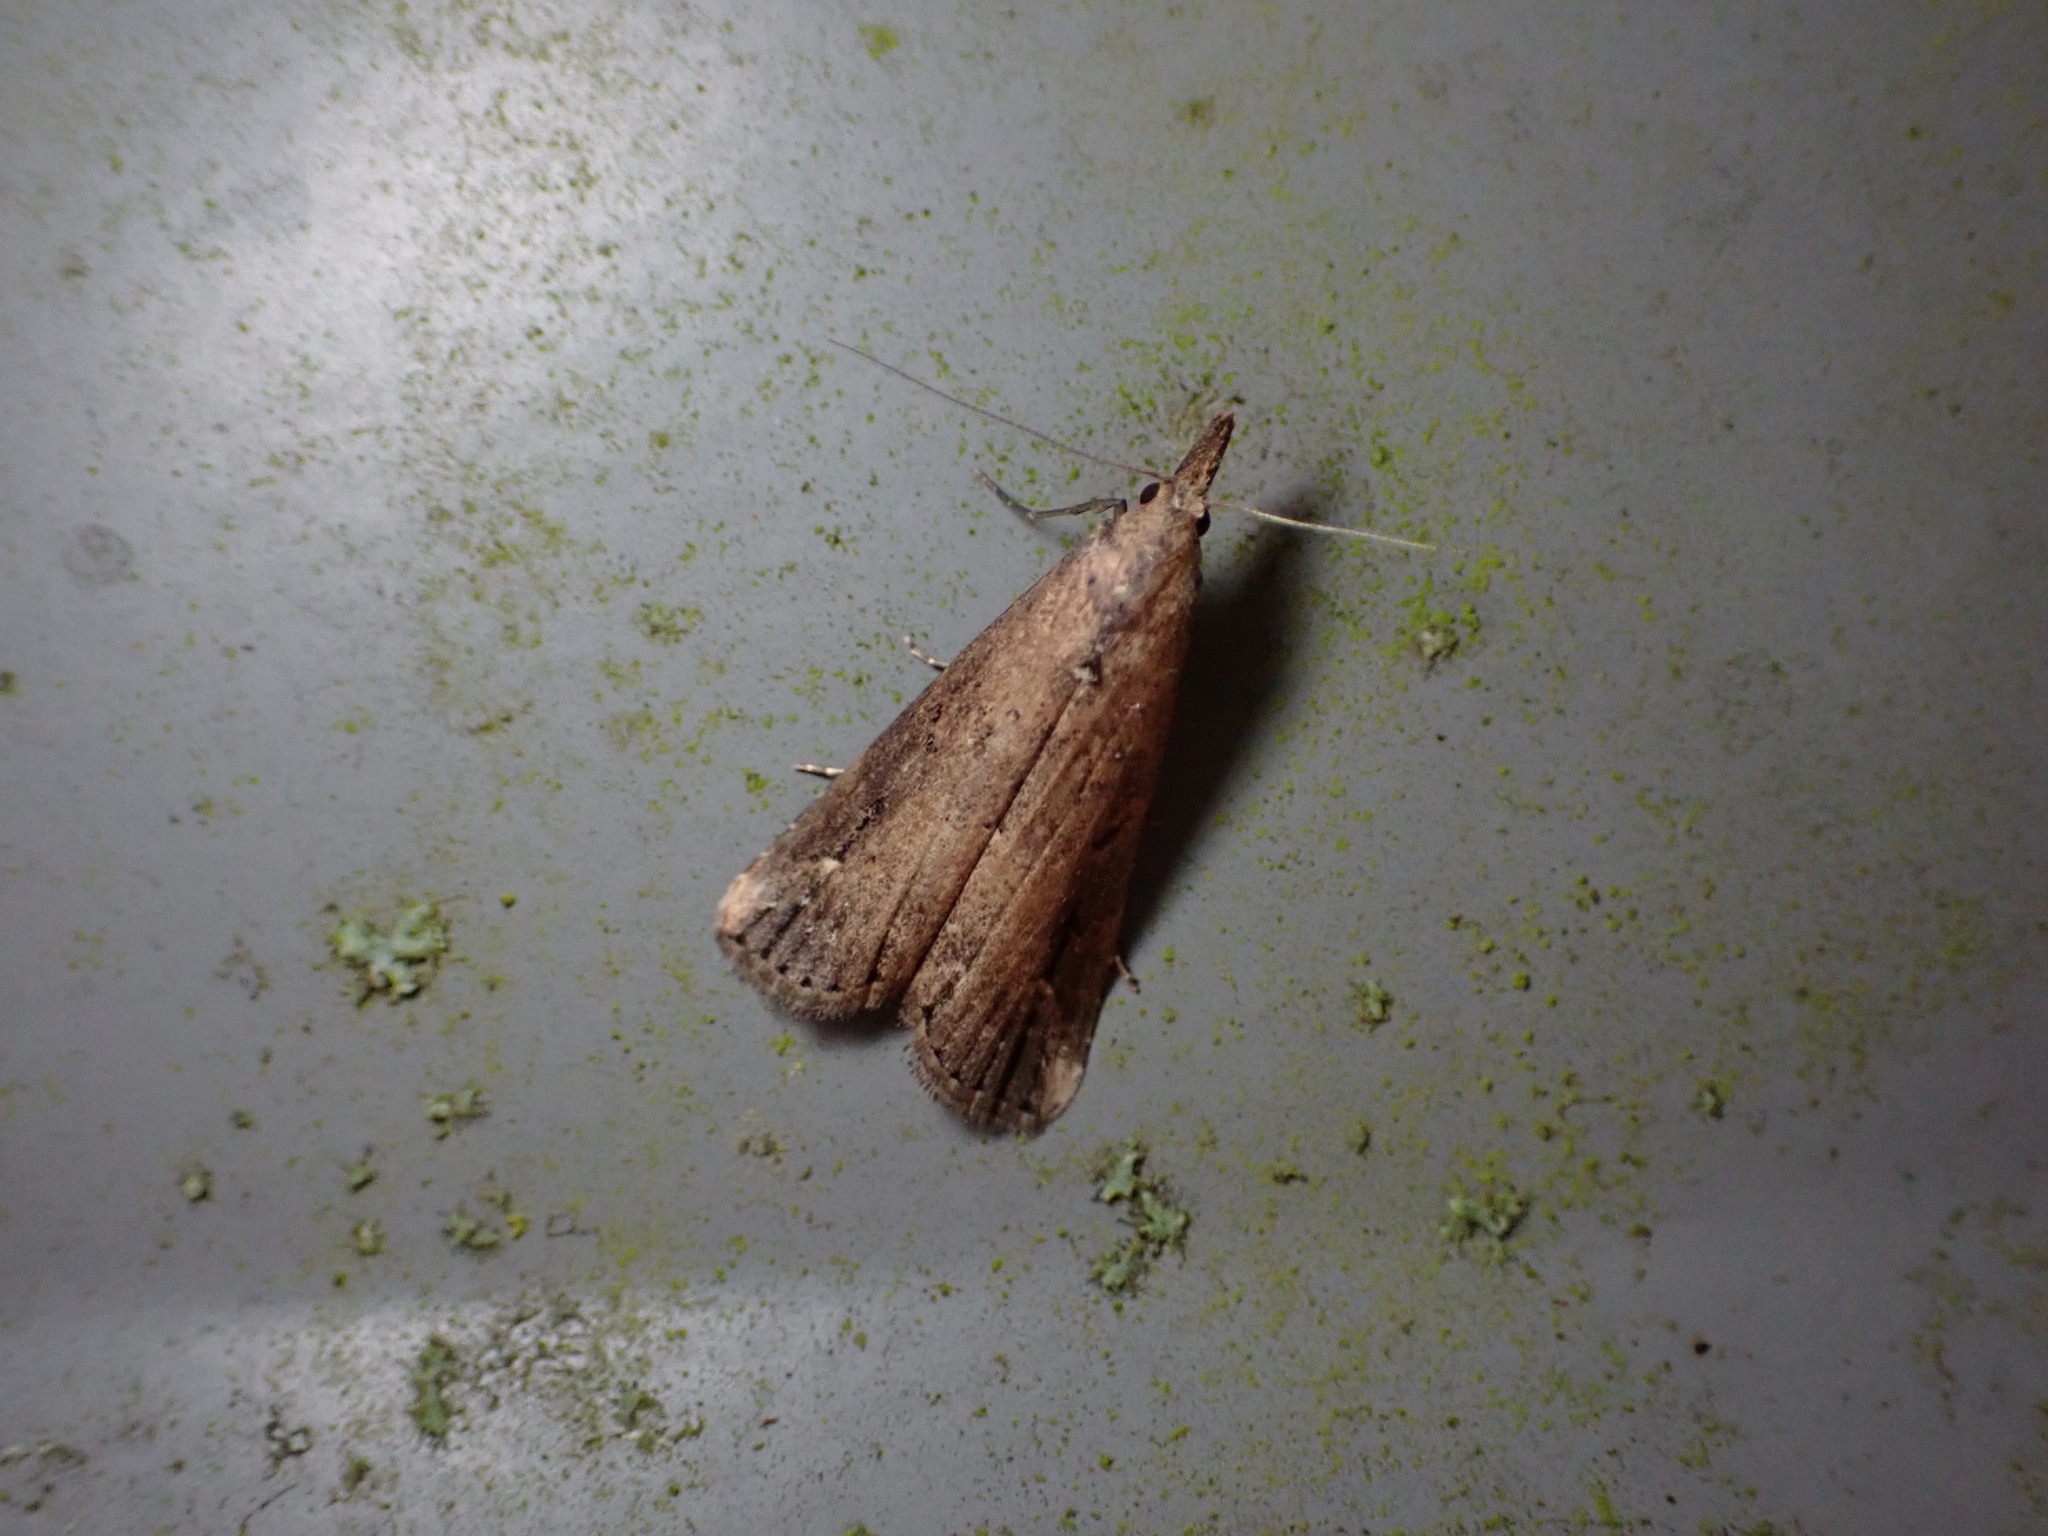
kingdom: Animalia
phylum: Arthropoda
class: Insecta
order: Lepidoptera
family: Erebidae
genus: Schrankia
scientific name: Schrankia costaestrigalis
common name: Pinion-streaked snout
